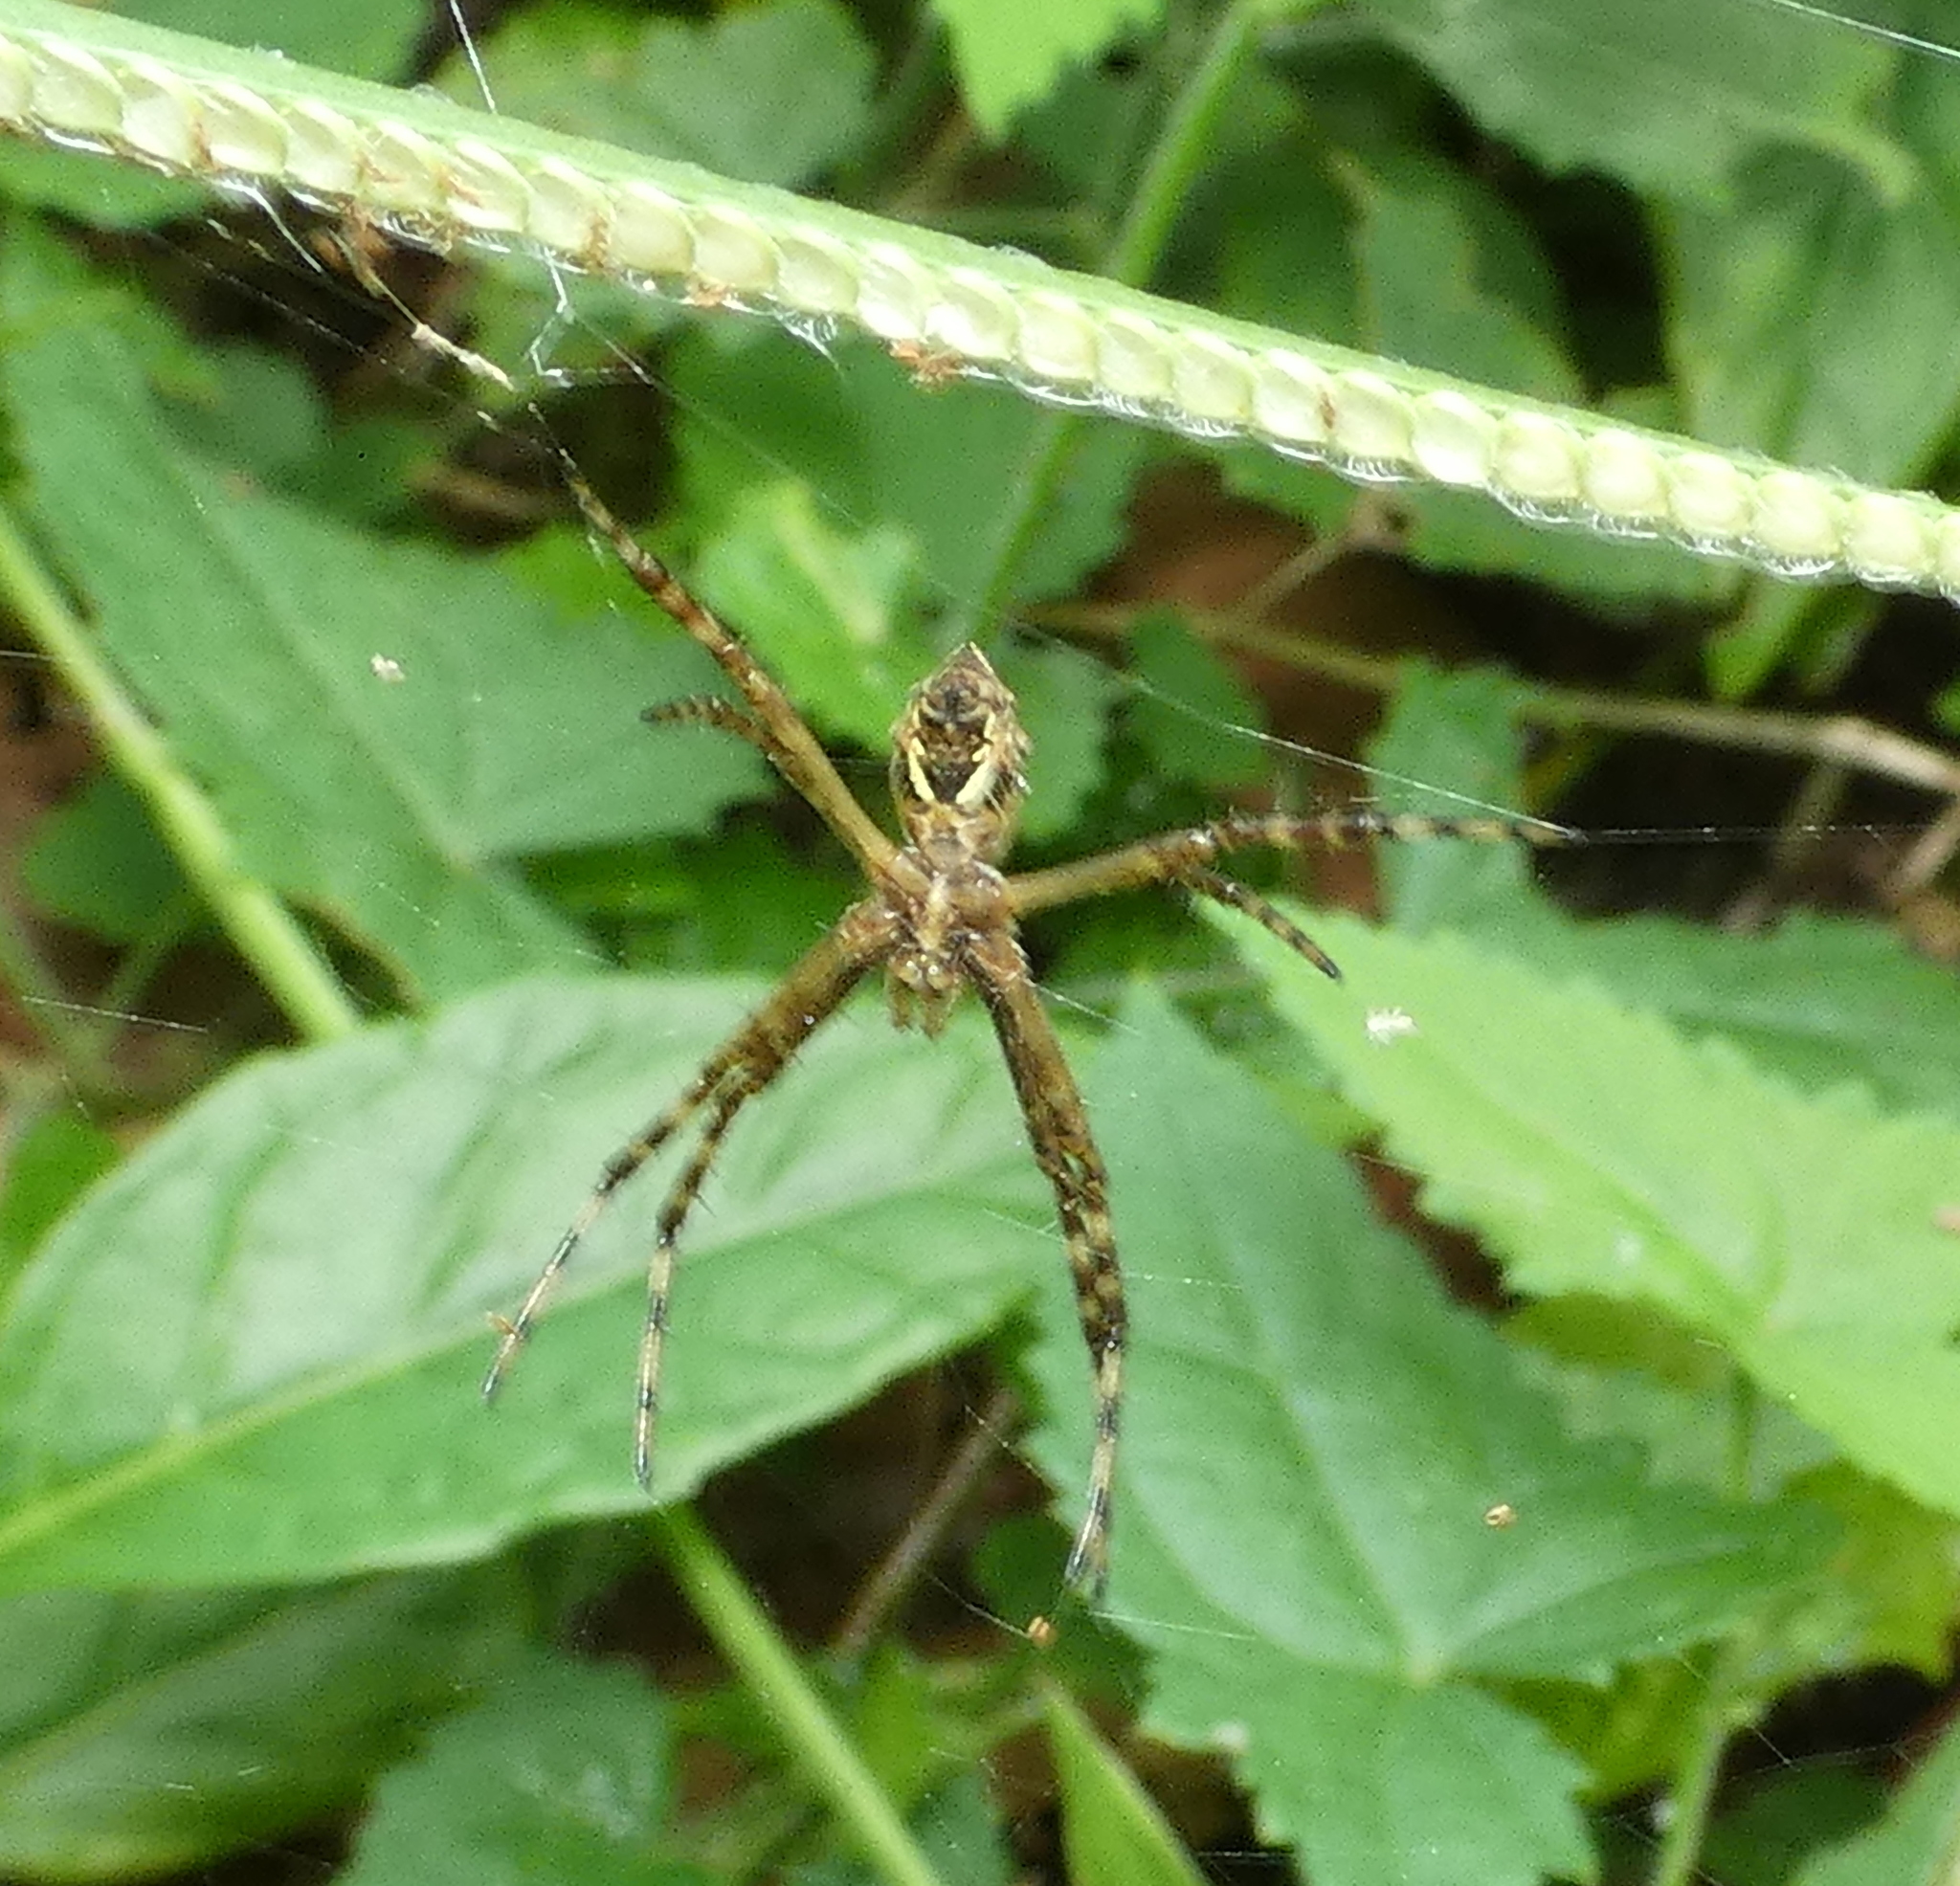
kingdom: Animalia
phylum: Arthropoda
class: Arachnida
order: Araneae
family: Araneidae
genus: Argiope
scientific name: Argiope argentata
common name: Orb weavers
